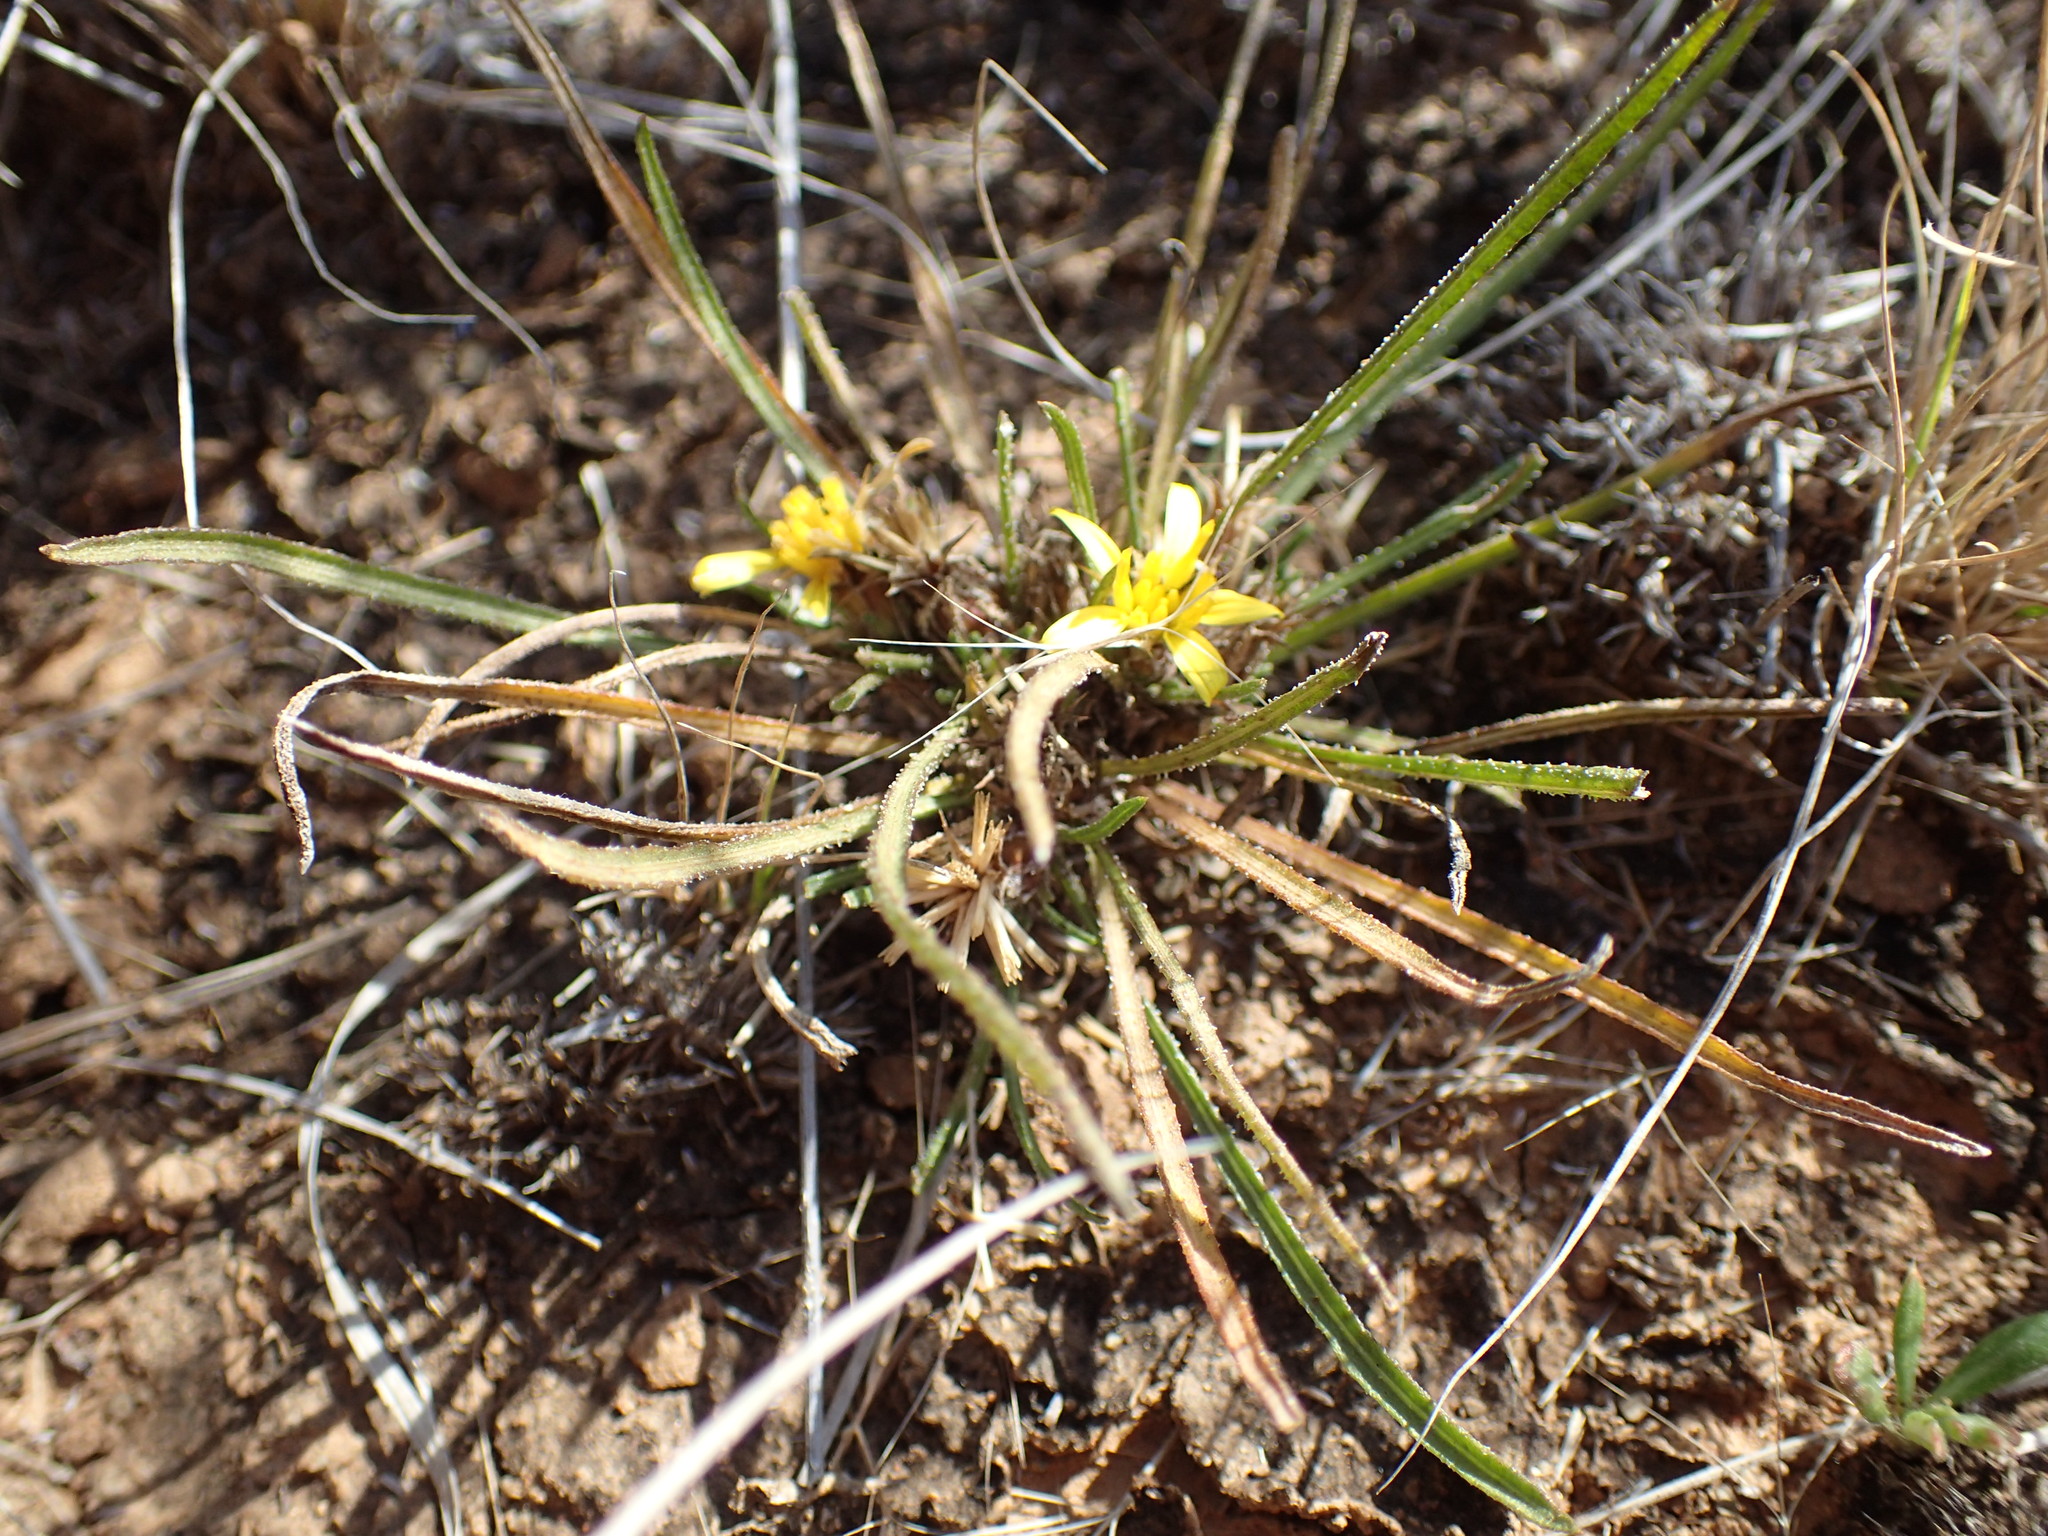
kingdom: Plantae
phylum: Tracheophyta
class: Magnoliopsida
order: Asterales
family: Asteraceae
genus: Geigeria
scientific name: Geigeria burkei
